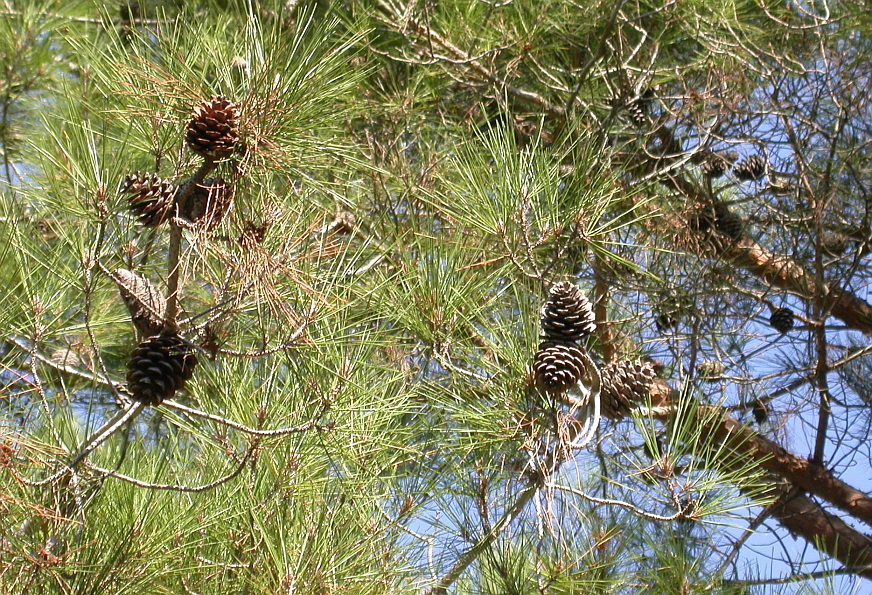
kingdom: Plantae
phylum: Tracheophyta
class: Pinopsida
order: Pinales
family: Pinaceae
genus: Pinus
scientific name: Pinus brutia
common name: Turkish pine
